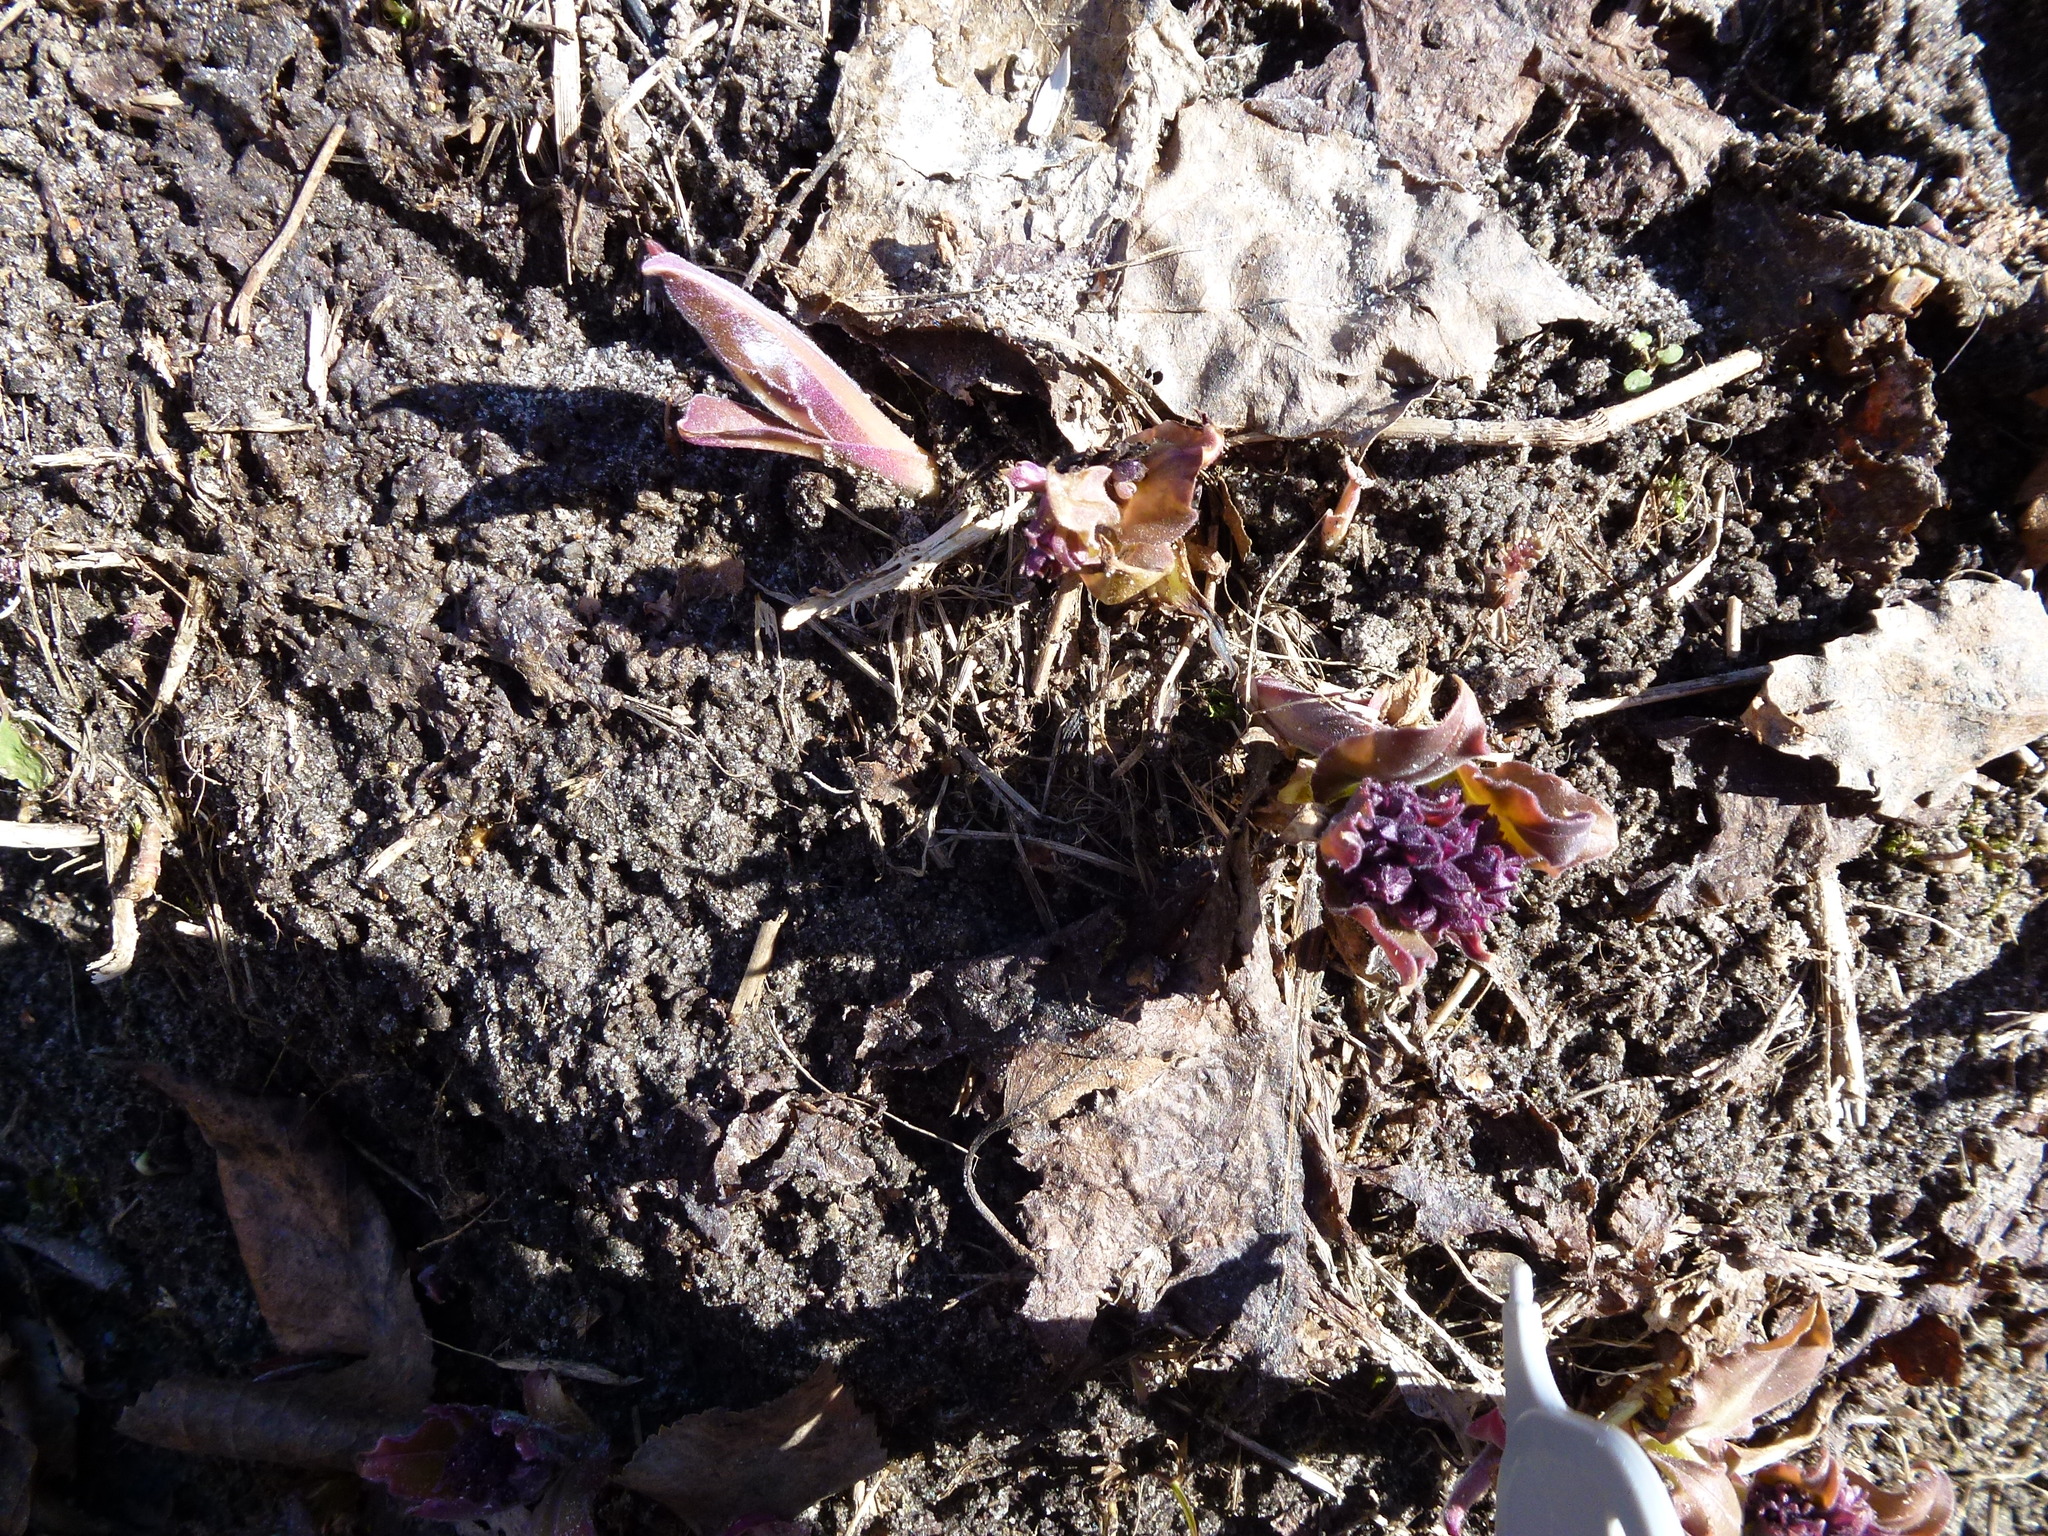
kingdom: Plantae
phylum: Tracheophyta
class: Magnoliopsida
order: Boraginales
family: Boraginaceae
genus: Pulmonaria
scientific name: Pulmonaria mollis
